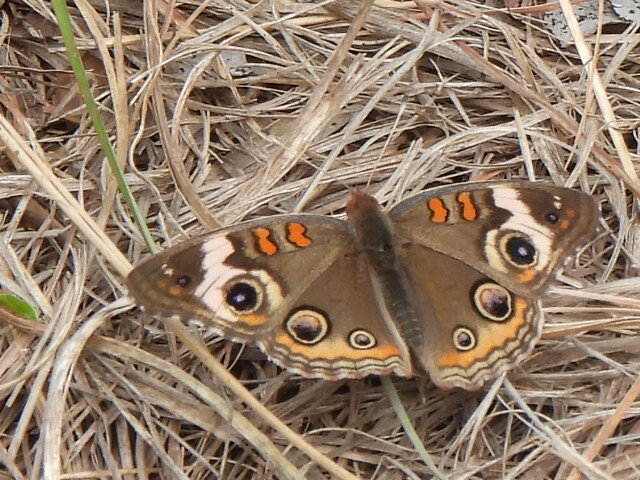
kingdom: Animalia
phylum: Arthropoda
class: Insecta
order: Lepidoptera
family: Nymphalidae
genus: Junonia
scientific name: Junonia coenia
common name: Common buckeye
